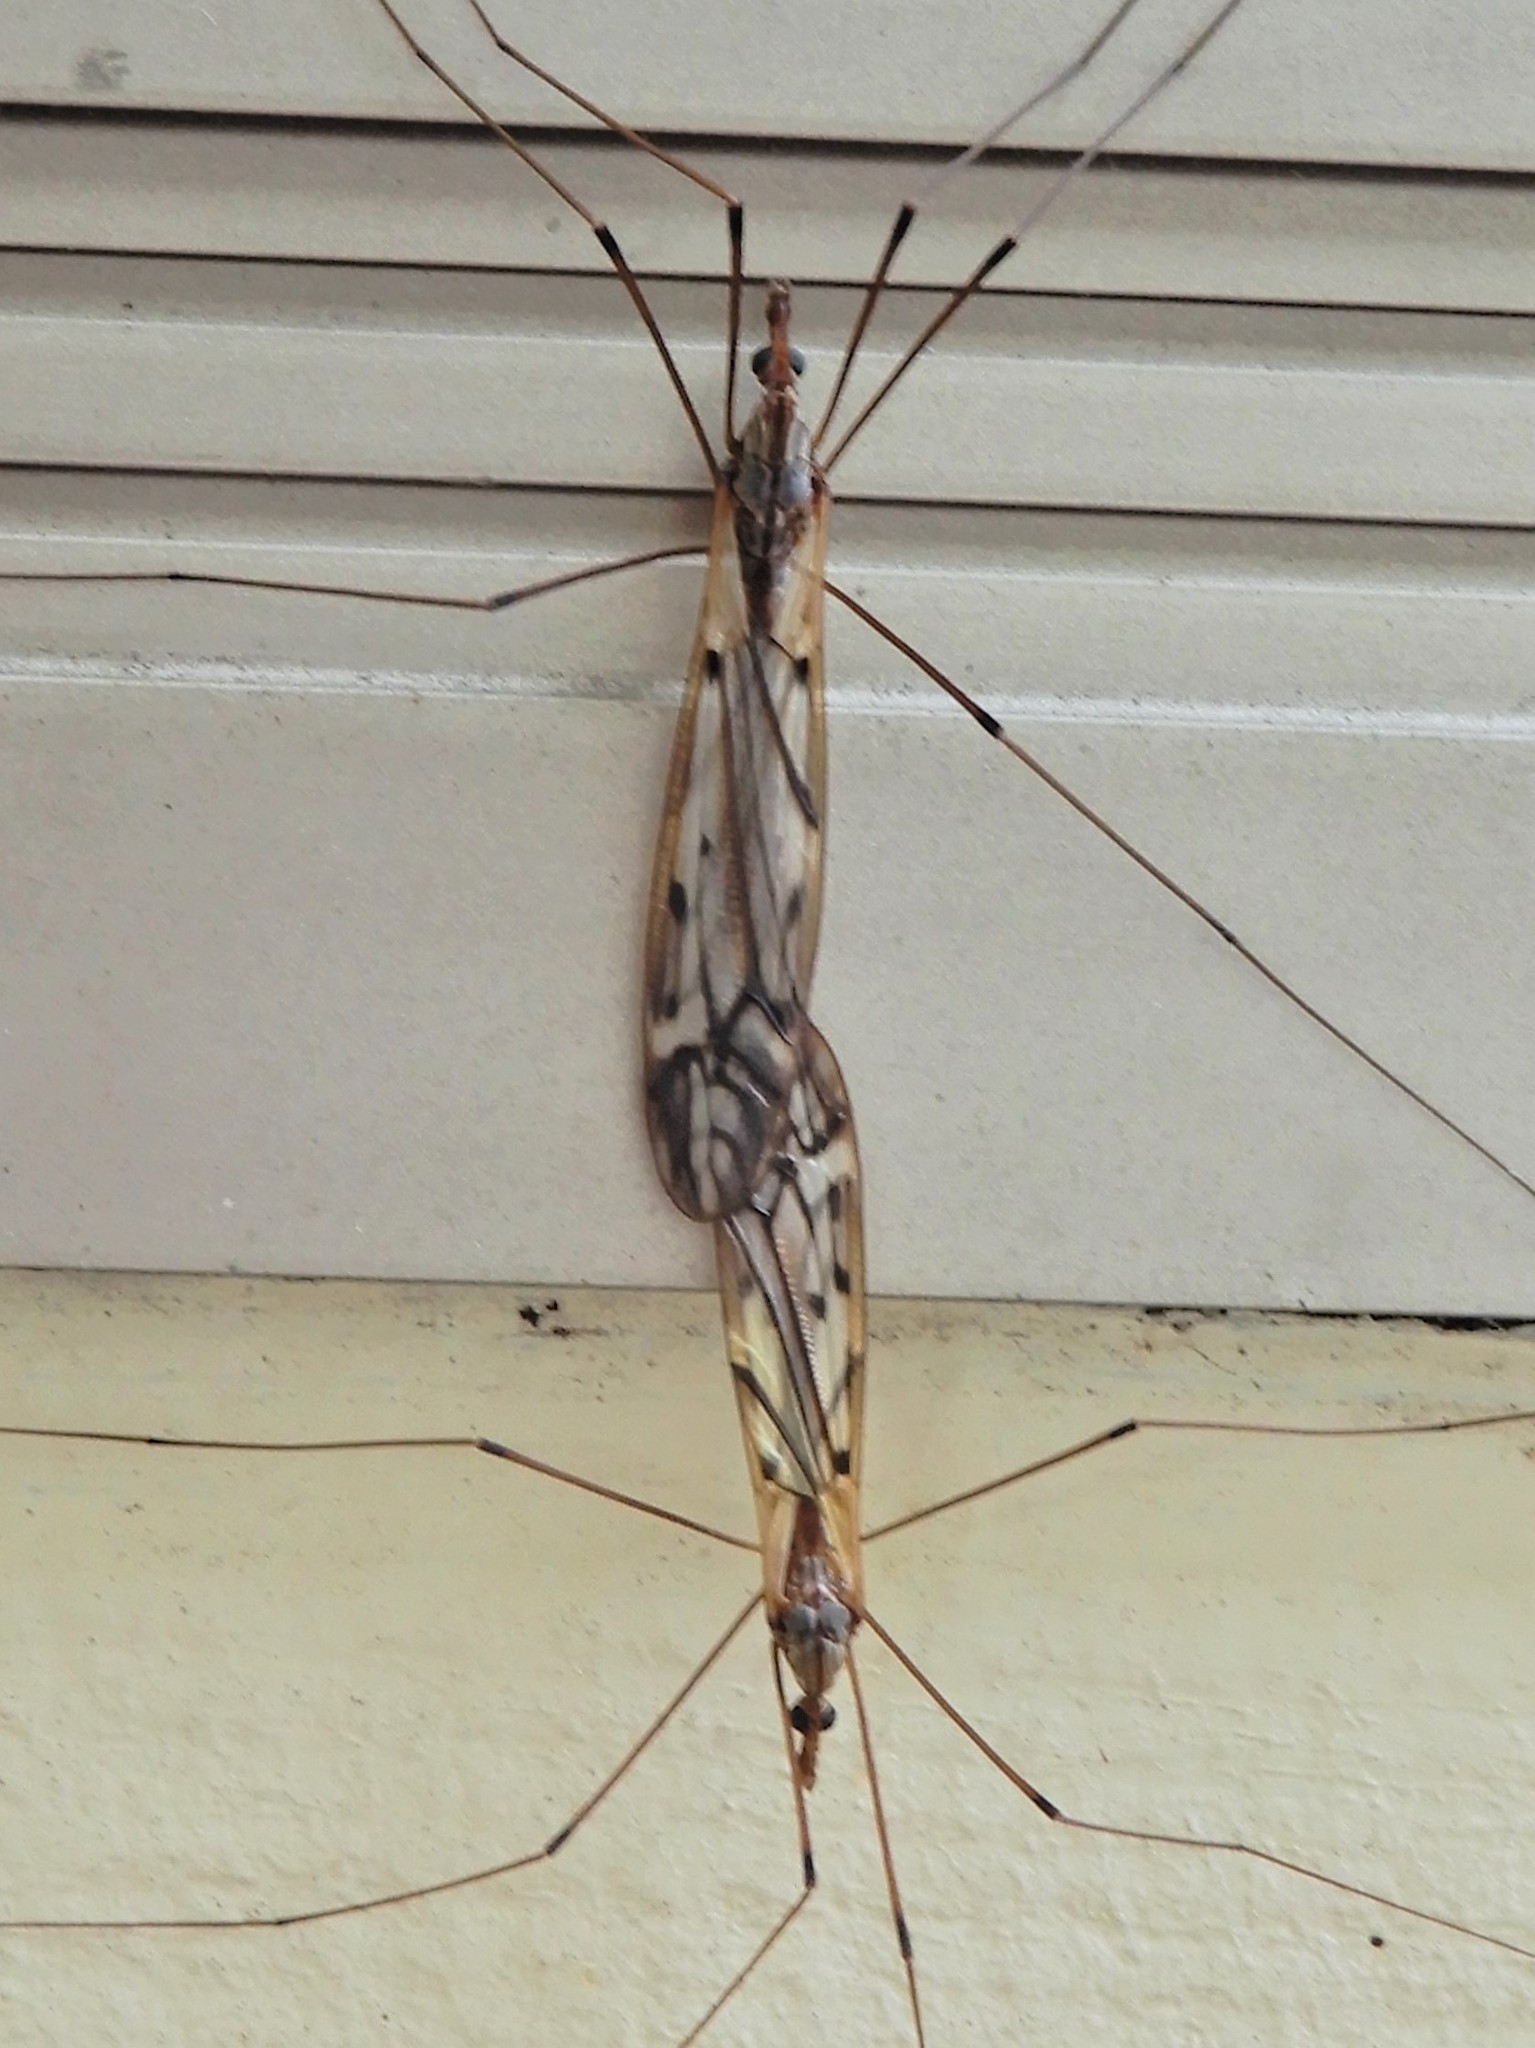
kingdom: Animalia
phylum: Arthropoda
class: Insecta
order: Diptera
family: Tipulidae
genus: Zelandotipula
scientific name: Zelandotipula novarae
